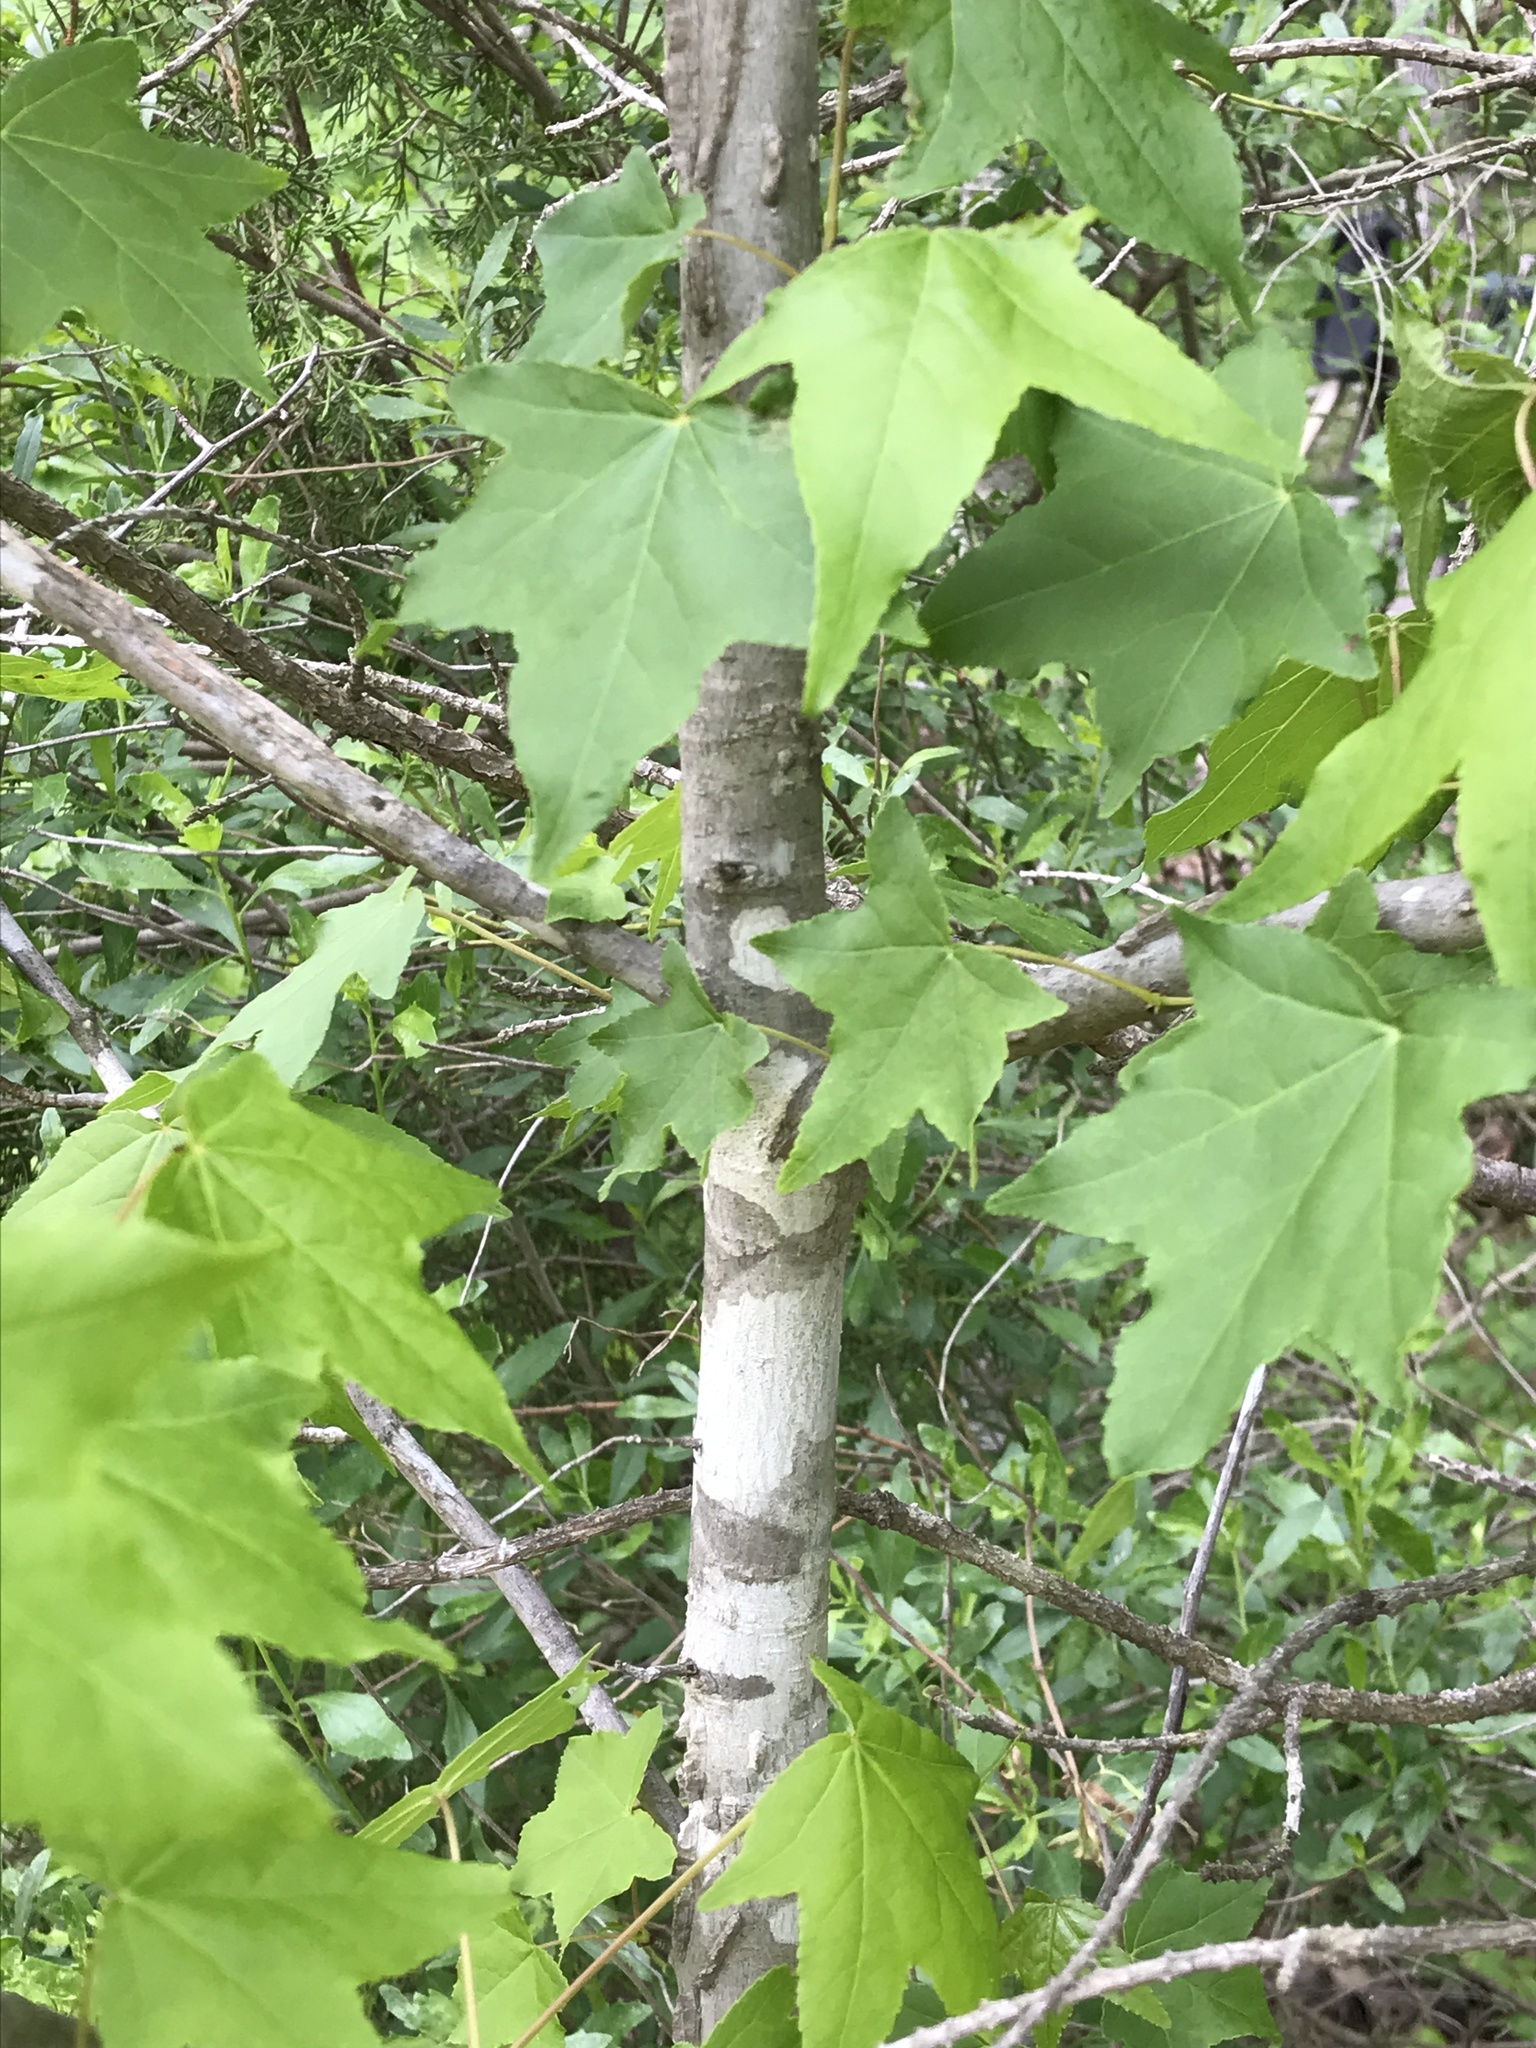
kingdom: Plantae
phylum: Tracheophyta
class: Magnoliopsida
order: Sapindales
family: Sapindaceae
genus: Acer
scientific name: Acer rubrum
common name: Red maple
